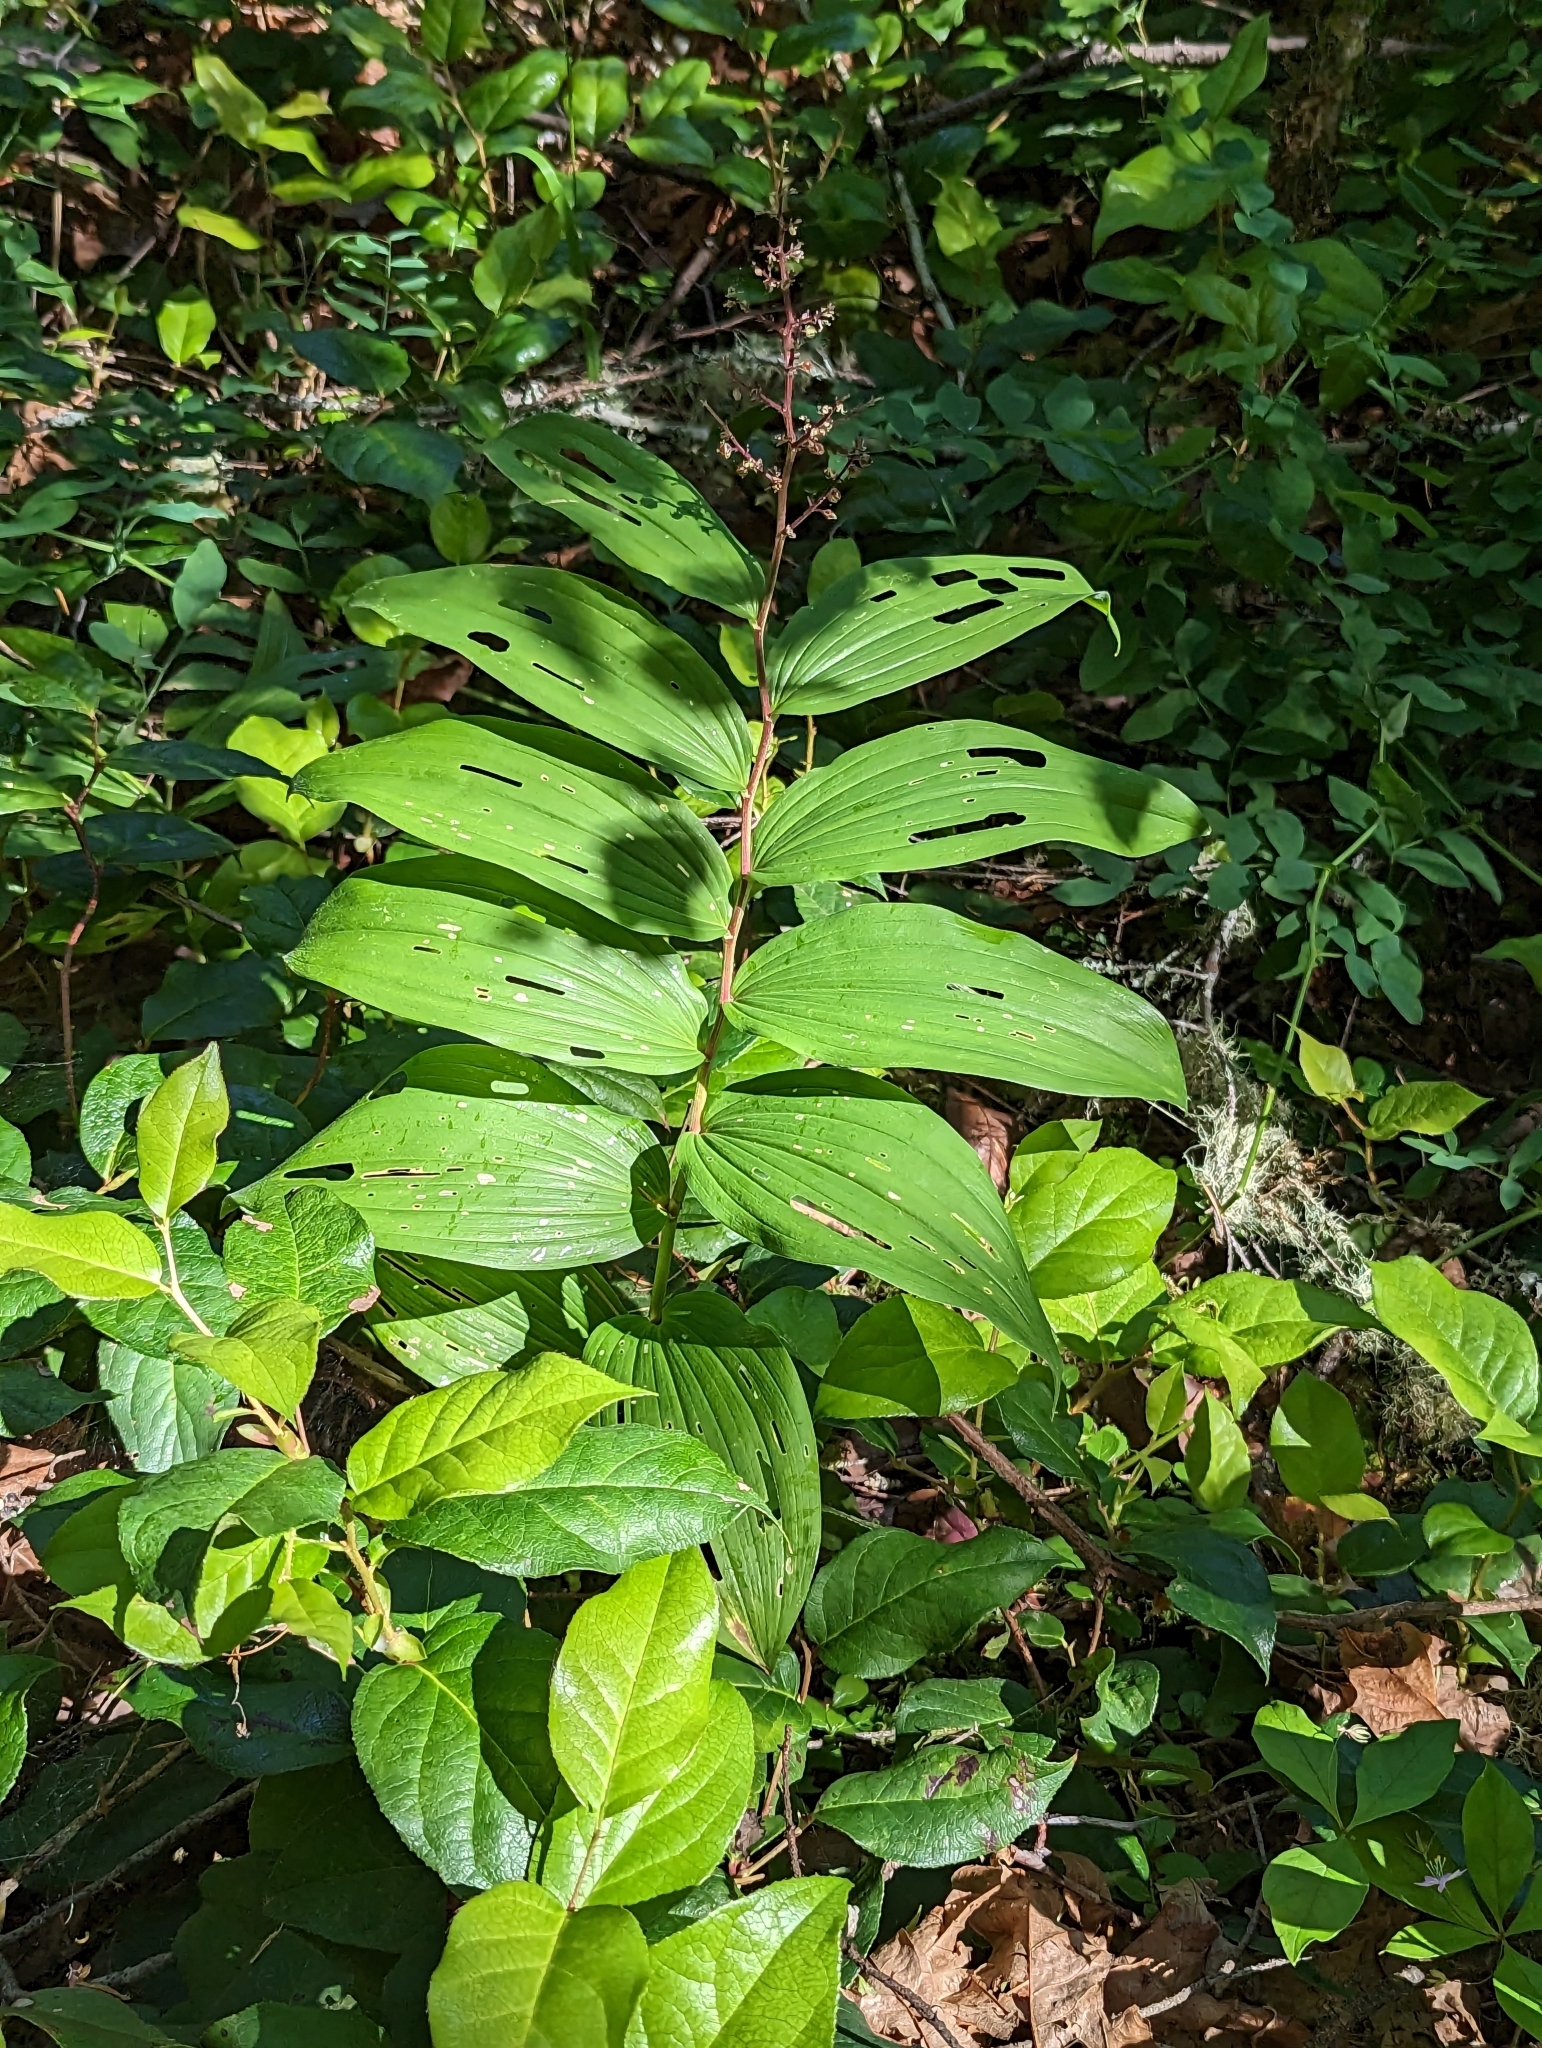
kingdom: Plantae
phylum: Tracheophyta
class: Liliopsida
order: Asparagales
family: Asparagaceae
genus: Maianthemum
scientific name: Maianthemum racemosum
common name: False spikenard
